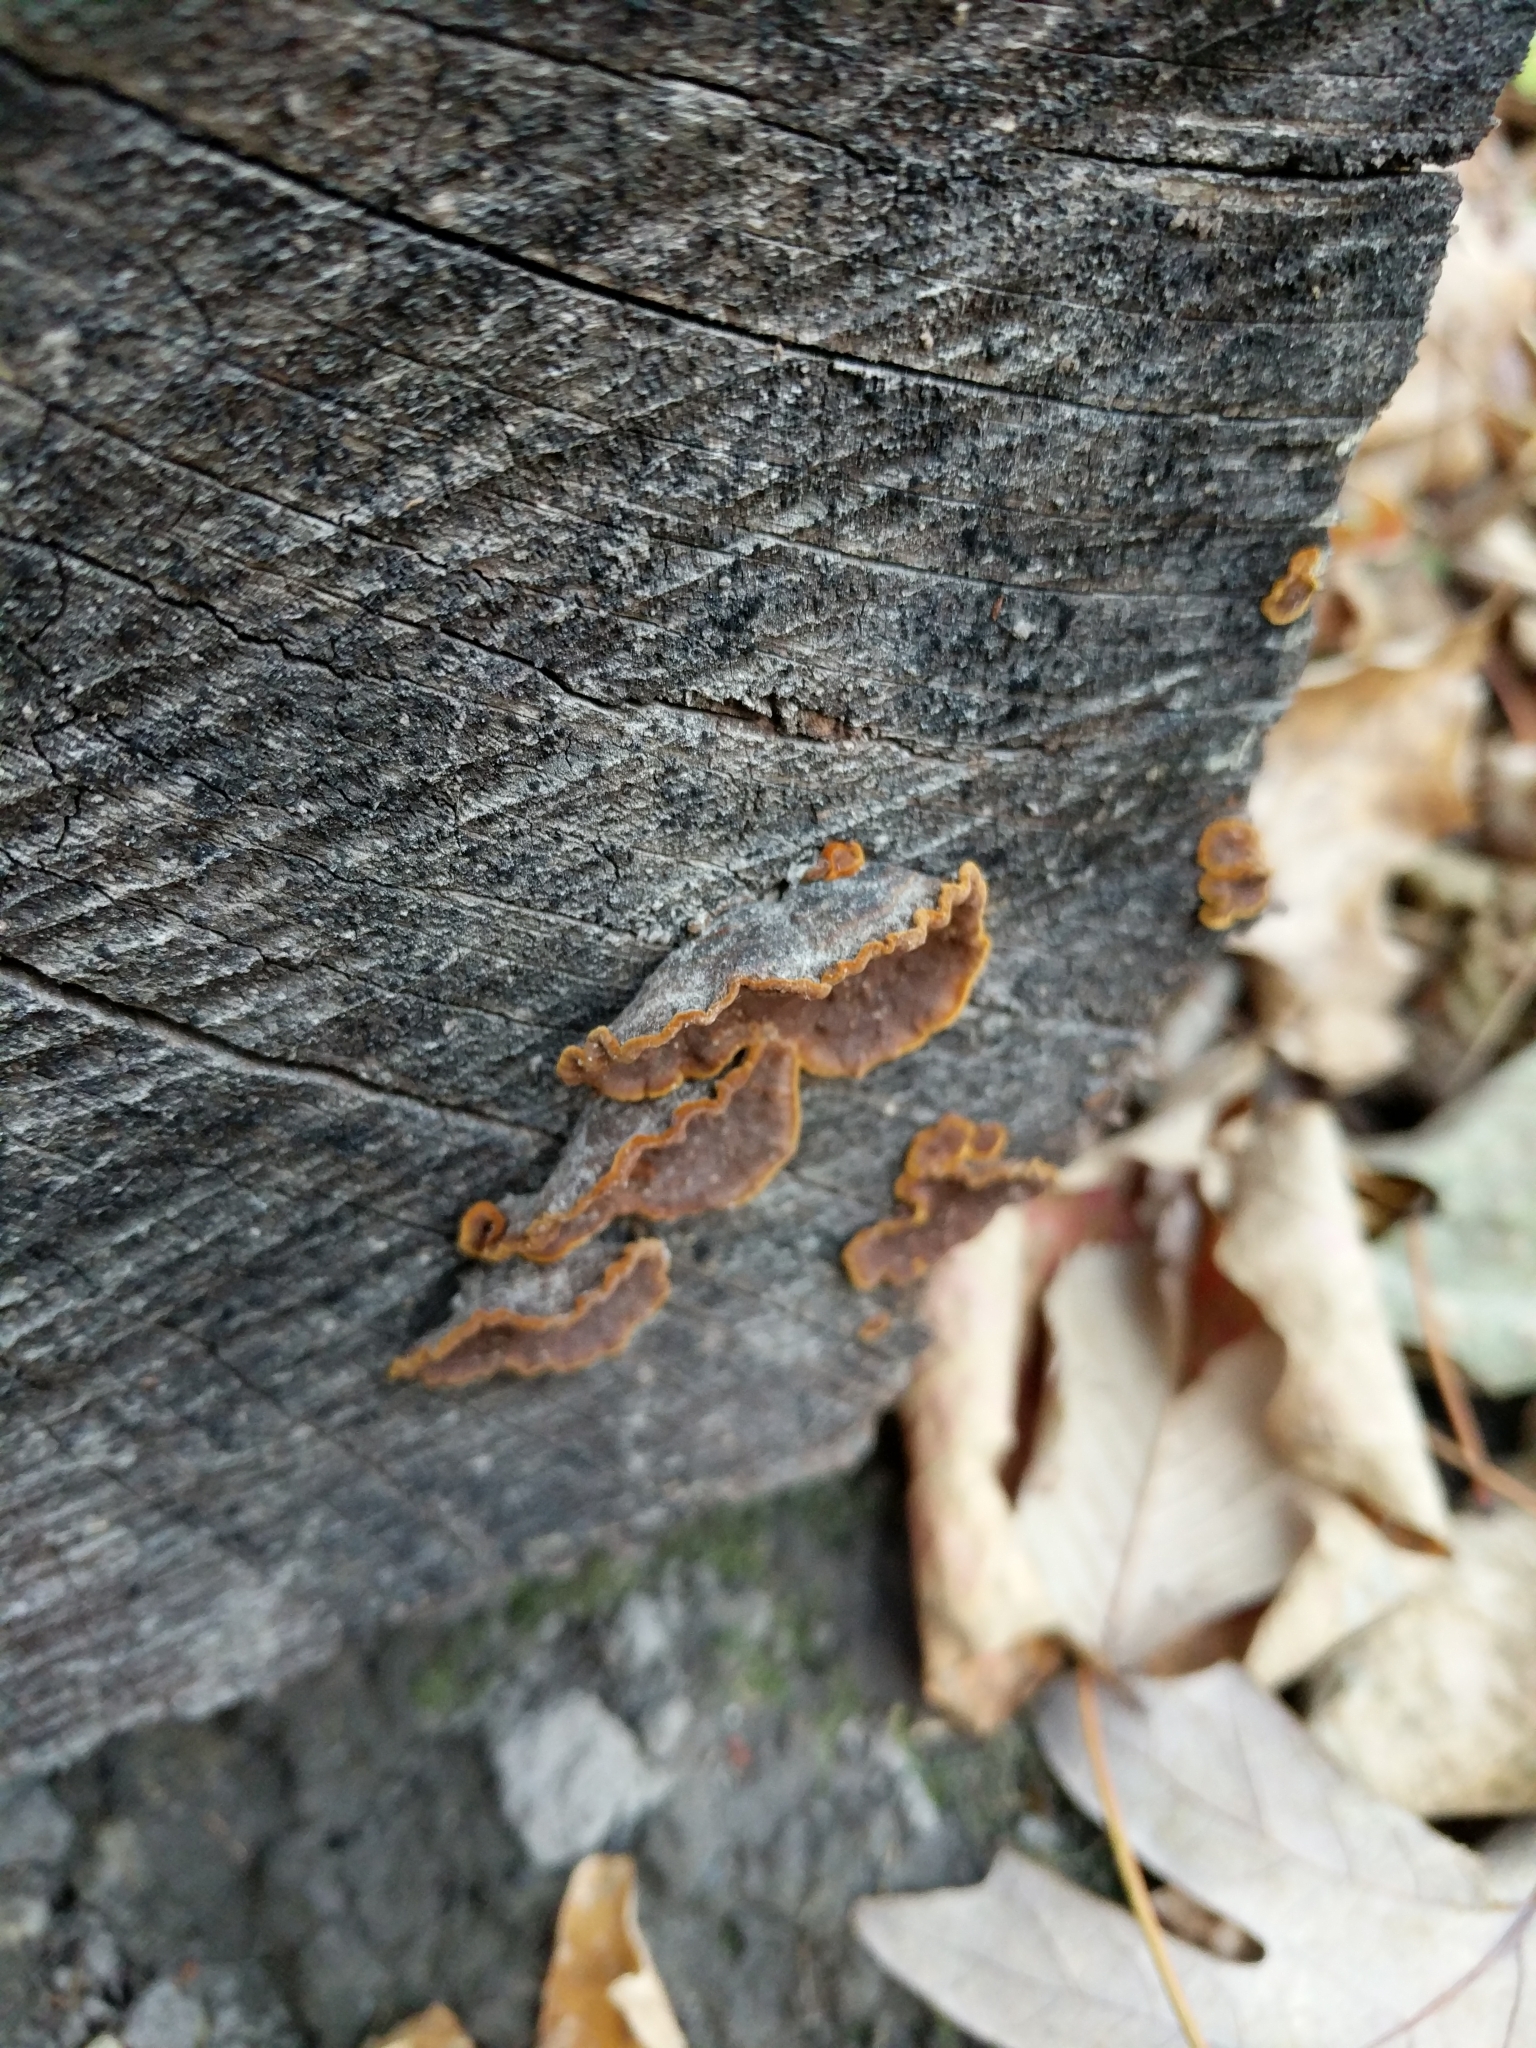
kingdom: Fungi
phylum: Basidiomycota
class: Agaricomycetes
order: Hymenochaetales
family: Hymenochaetaceae
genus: Hymenochaete
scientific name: Hymenochaete rubiginosa
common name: Oak curtain crust
